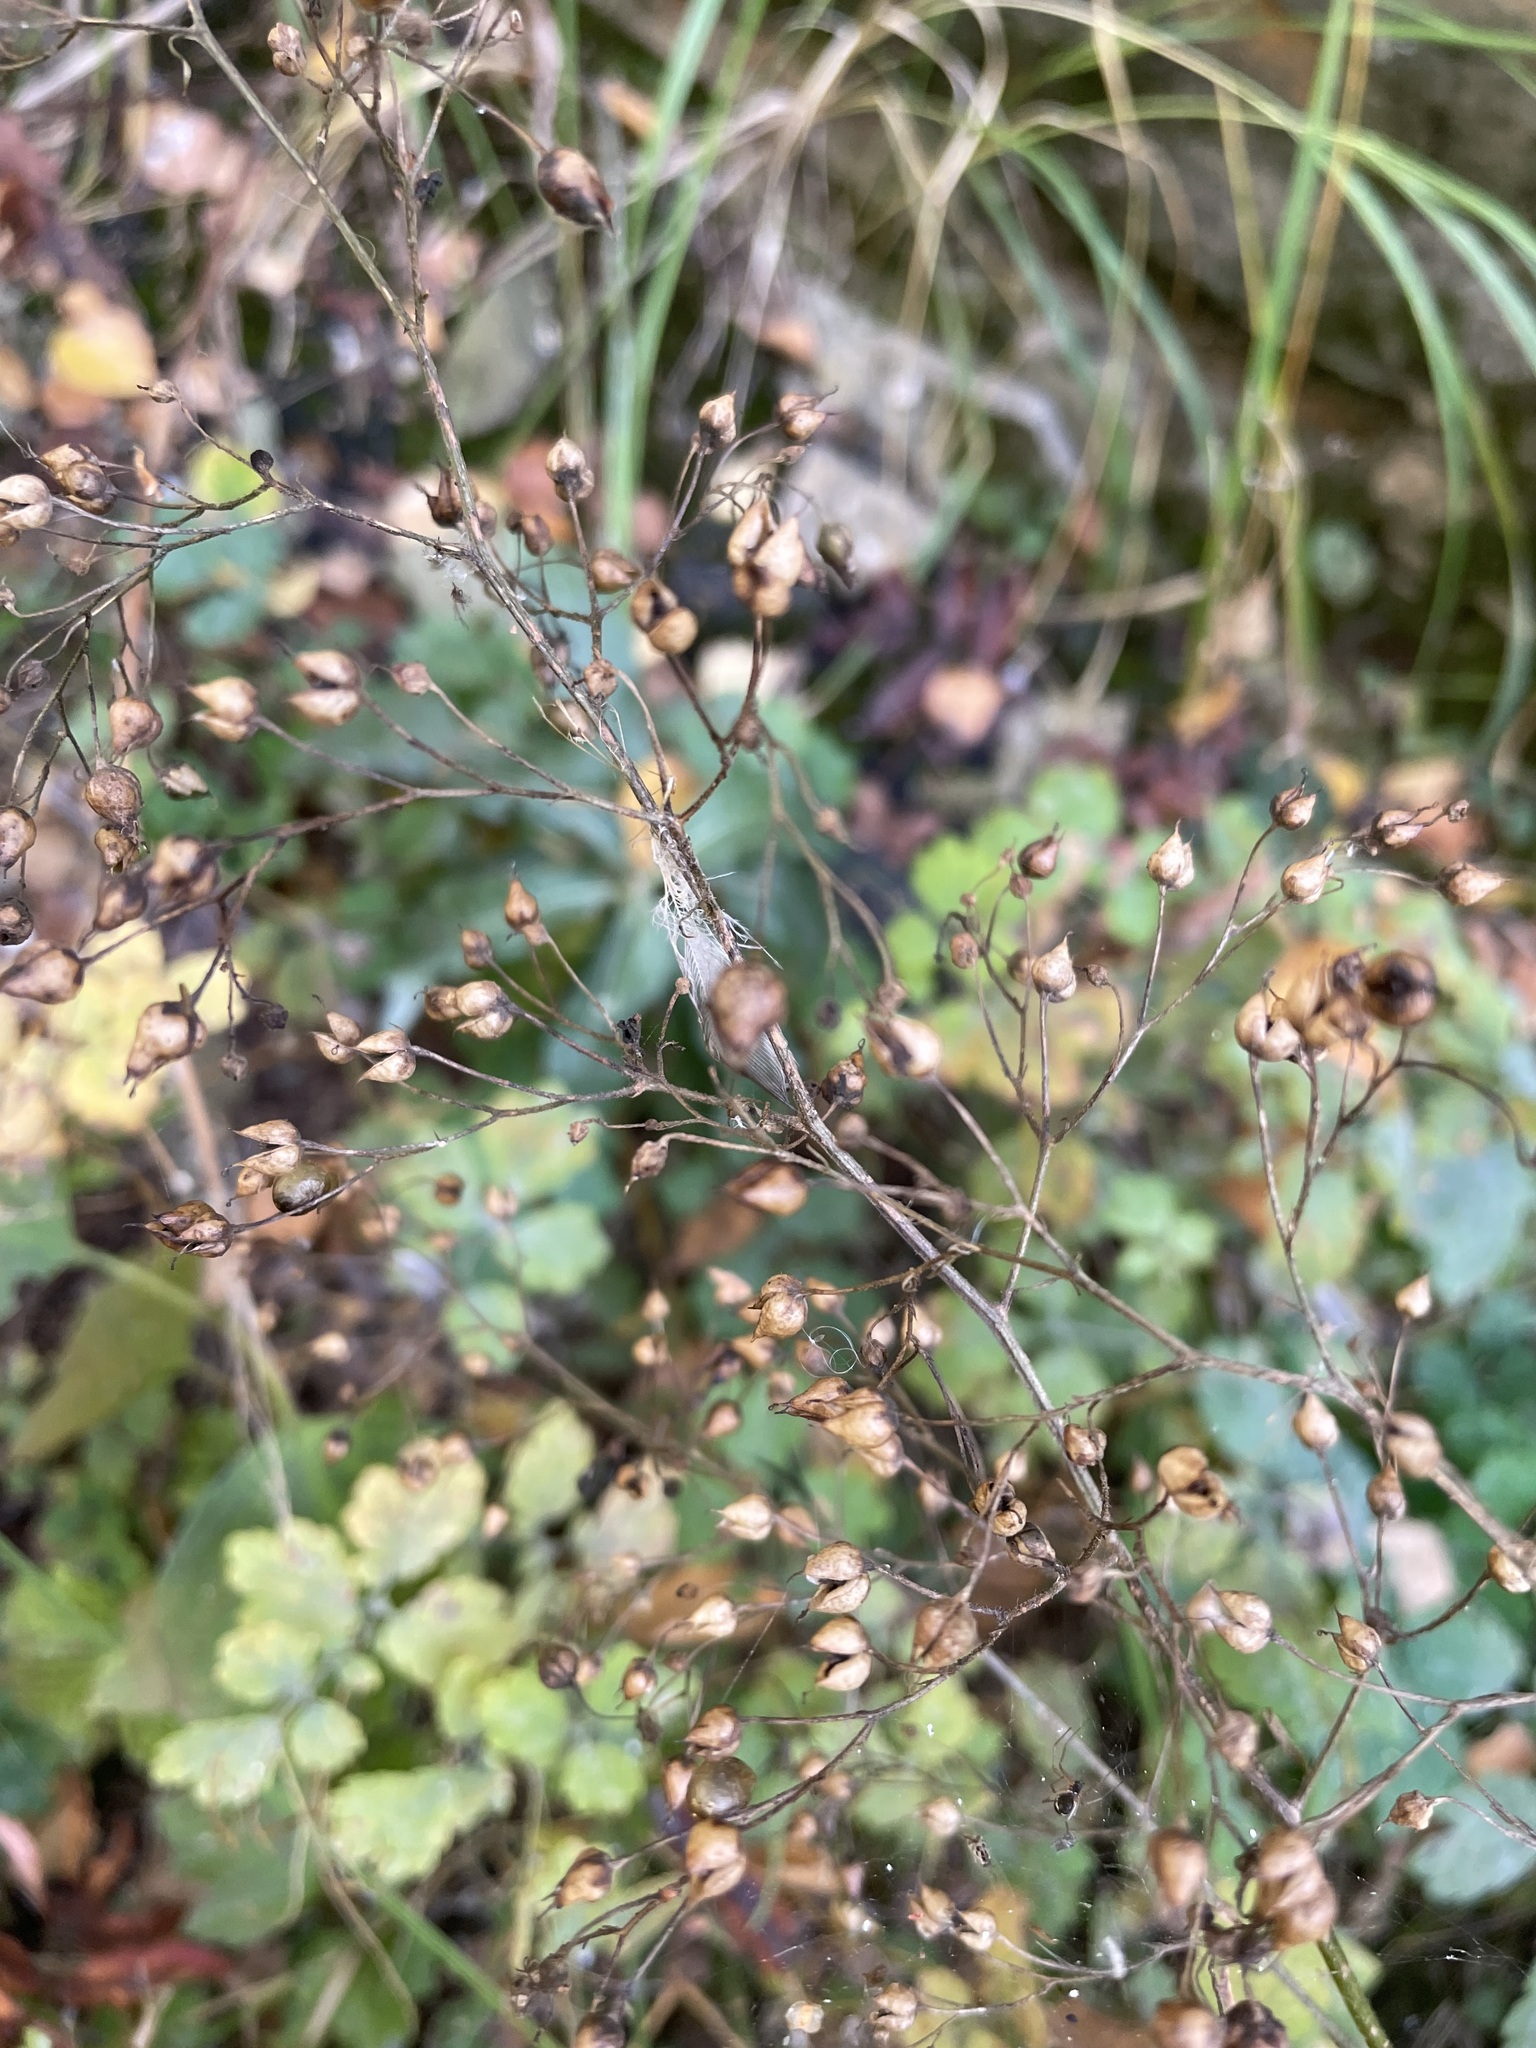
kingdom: Plantae
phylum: Tracheophyta
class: Magnoliopsida
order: Lamiales
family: Scrophulariaceae
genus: Scrophularia
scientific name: Scrophularia nodosa
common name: Common figwort
